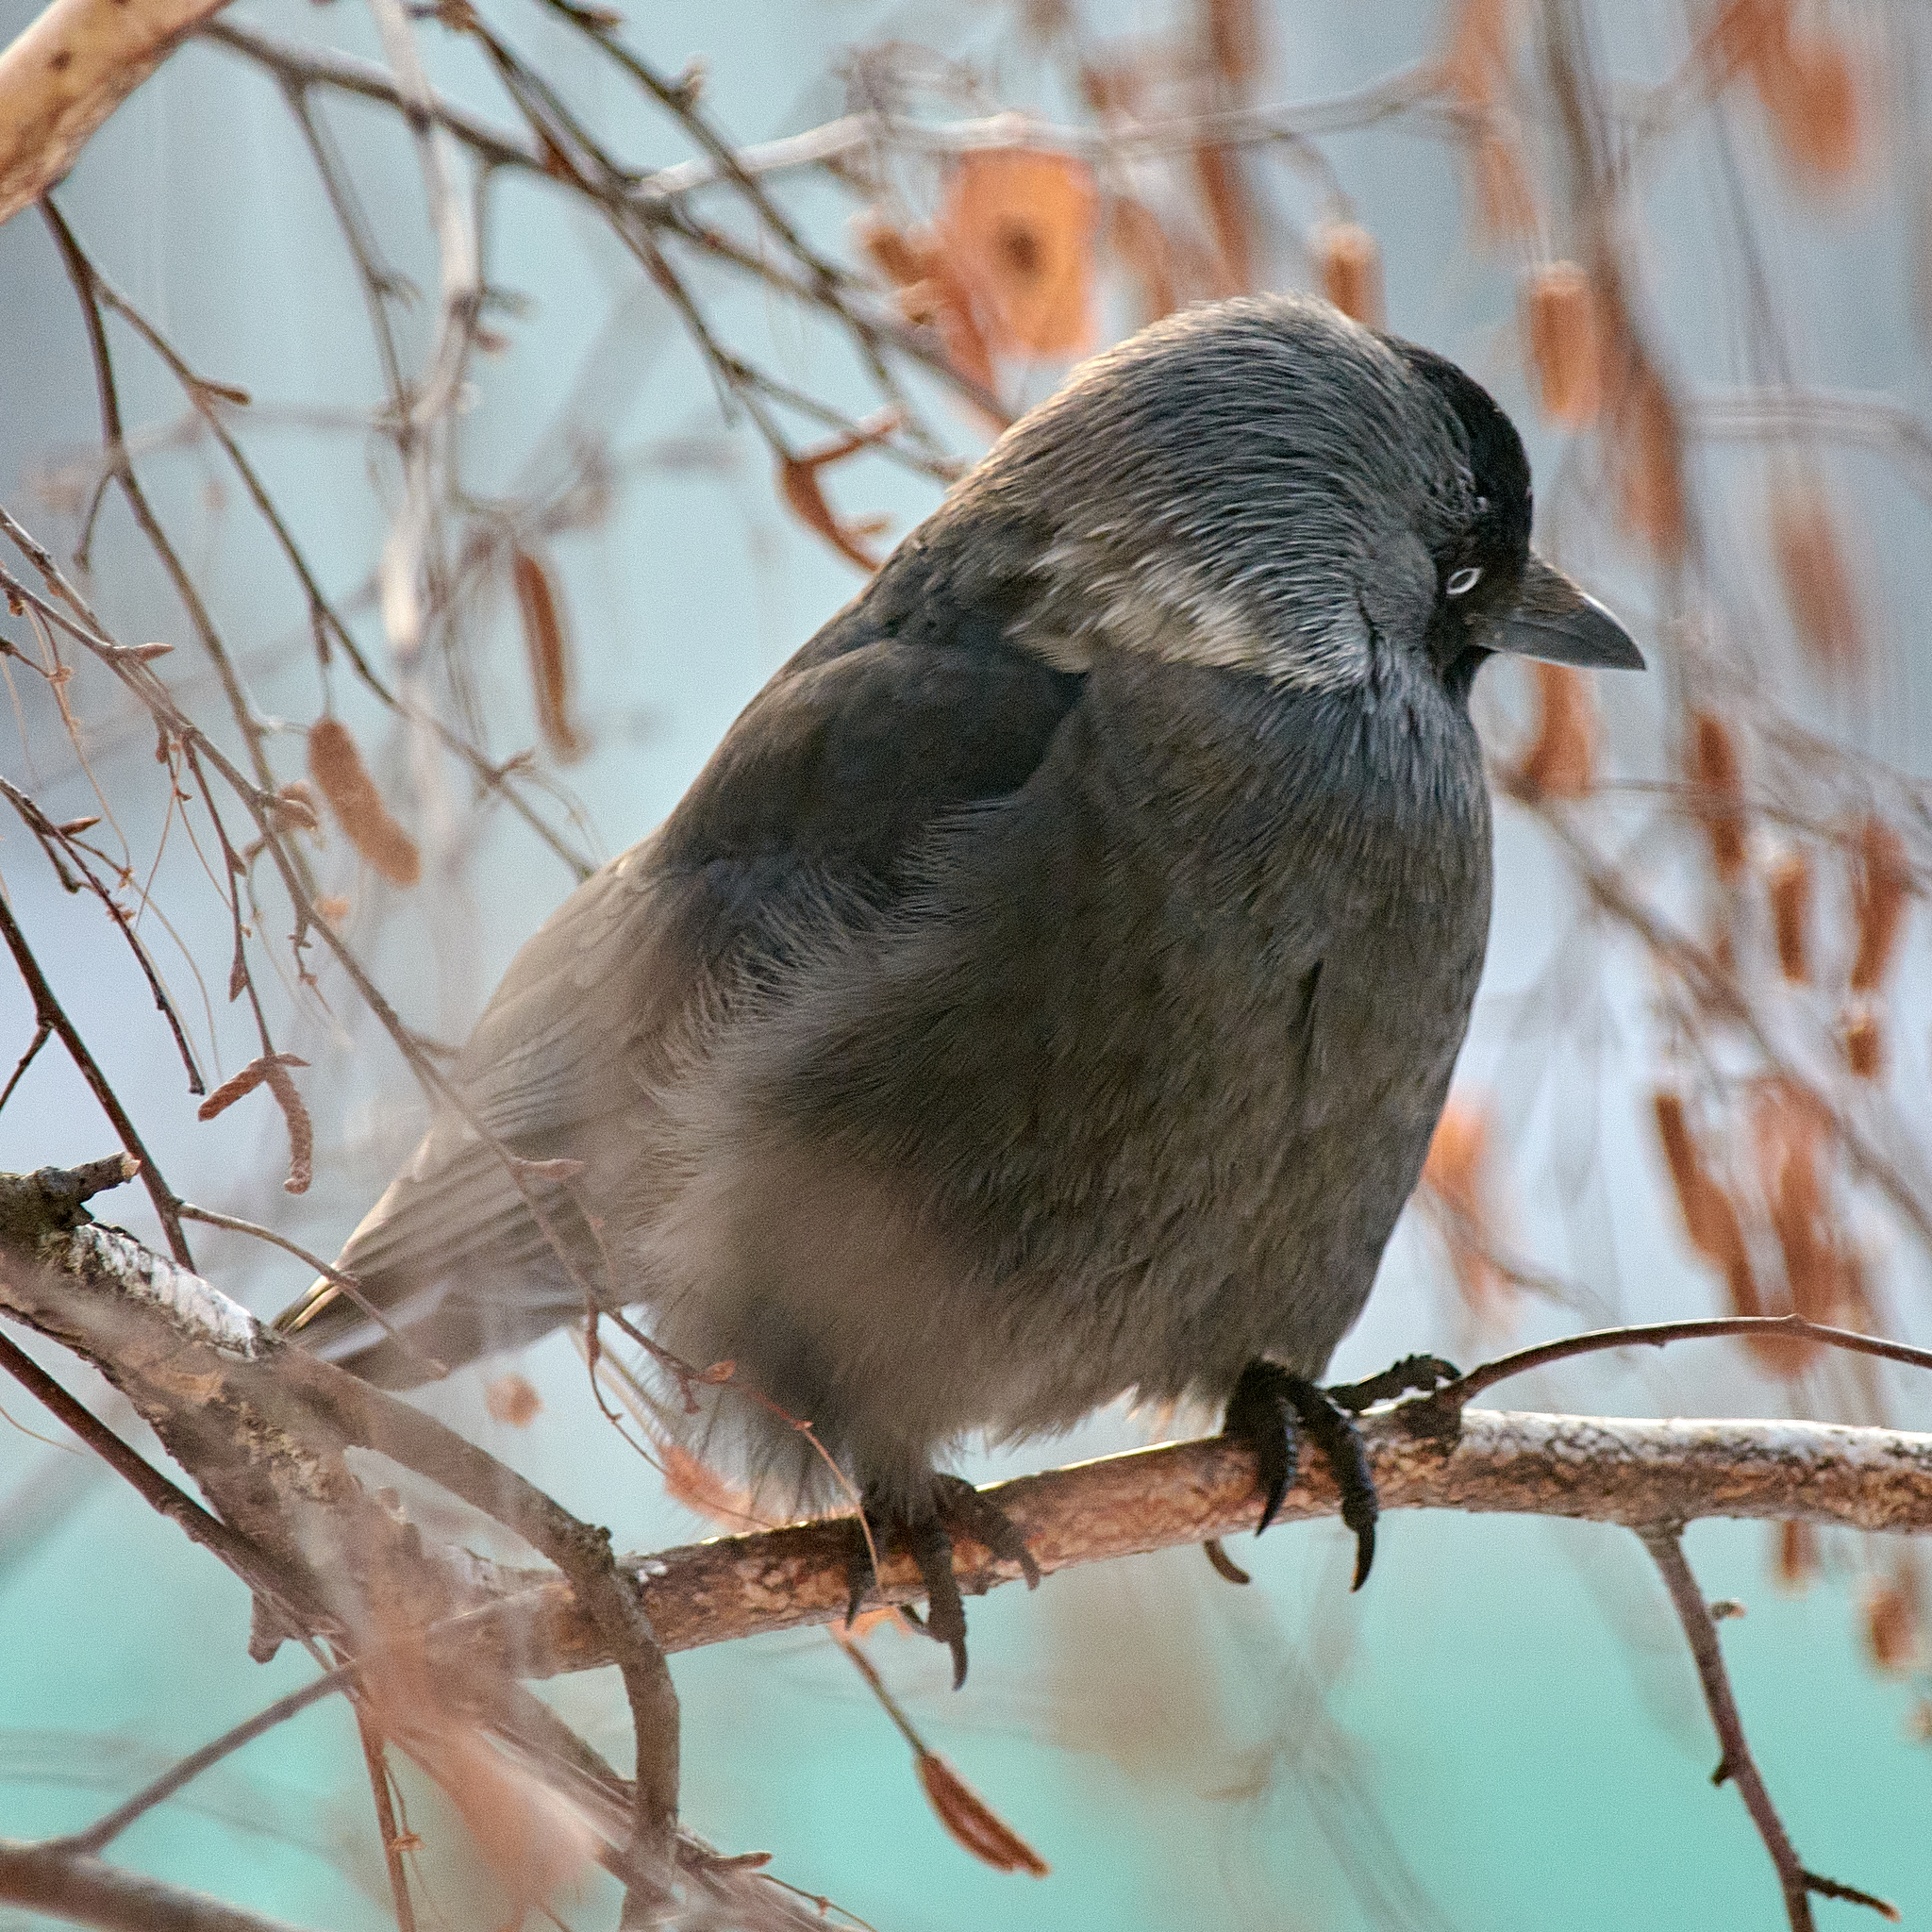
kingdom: Animalia
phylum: Chordata
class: Aves
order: Passeriformes
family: Corvidae
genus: Coloeus
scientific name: Coloeus monedula
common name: Western jackdaw
